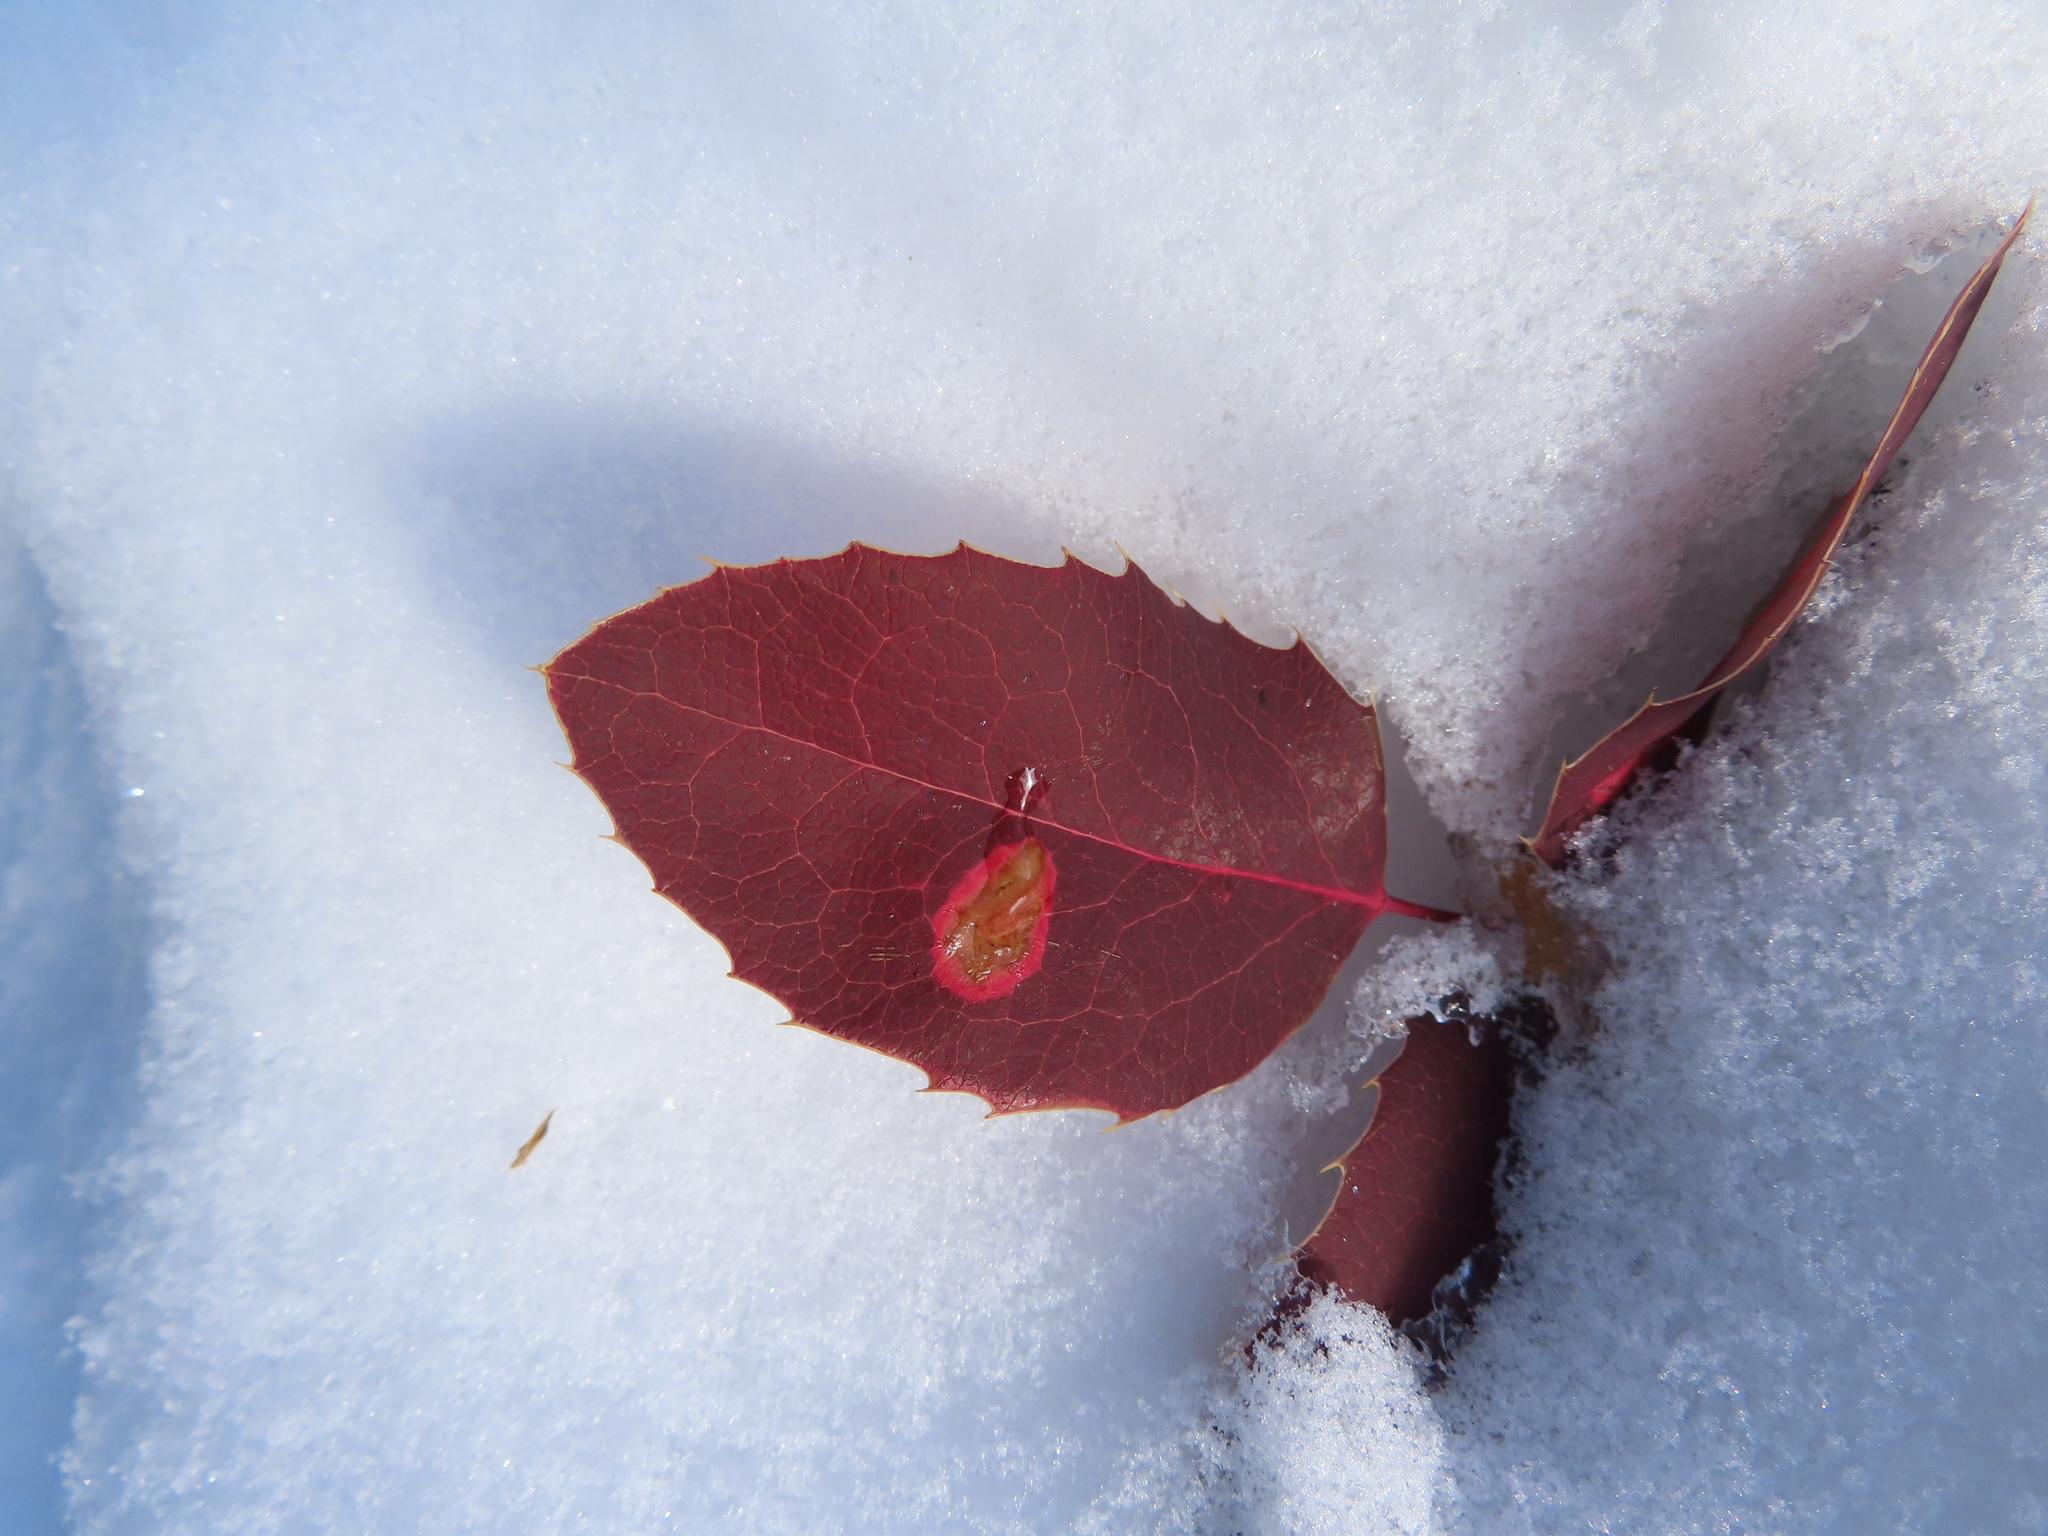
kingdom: Plantae
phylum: Tracheophyta
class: Magnoliopsida
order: Ranunculales
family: Berberidaceae
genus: Mahonia
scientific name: Mahonia repens
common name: Creeping oregon-grape
